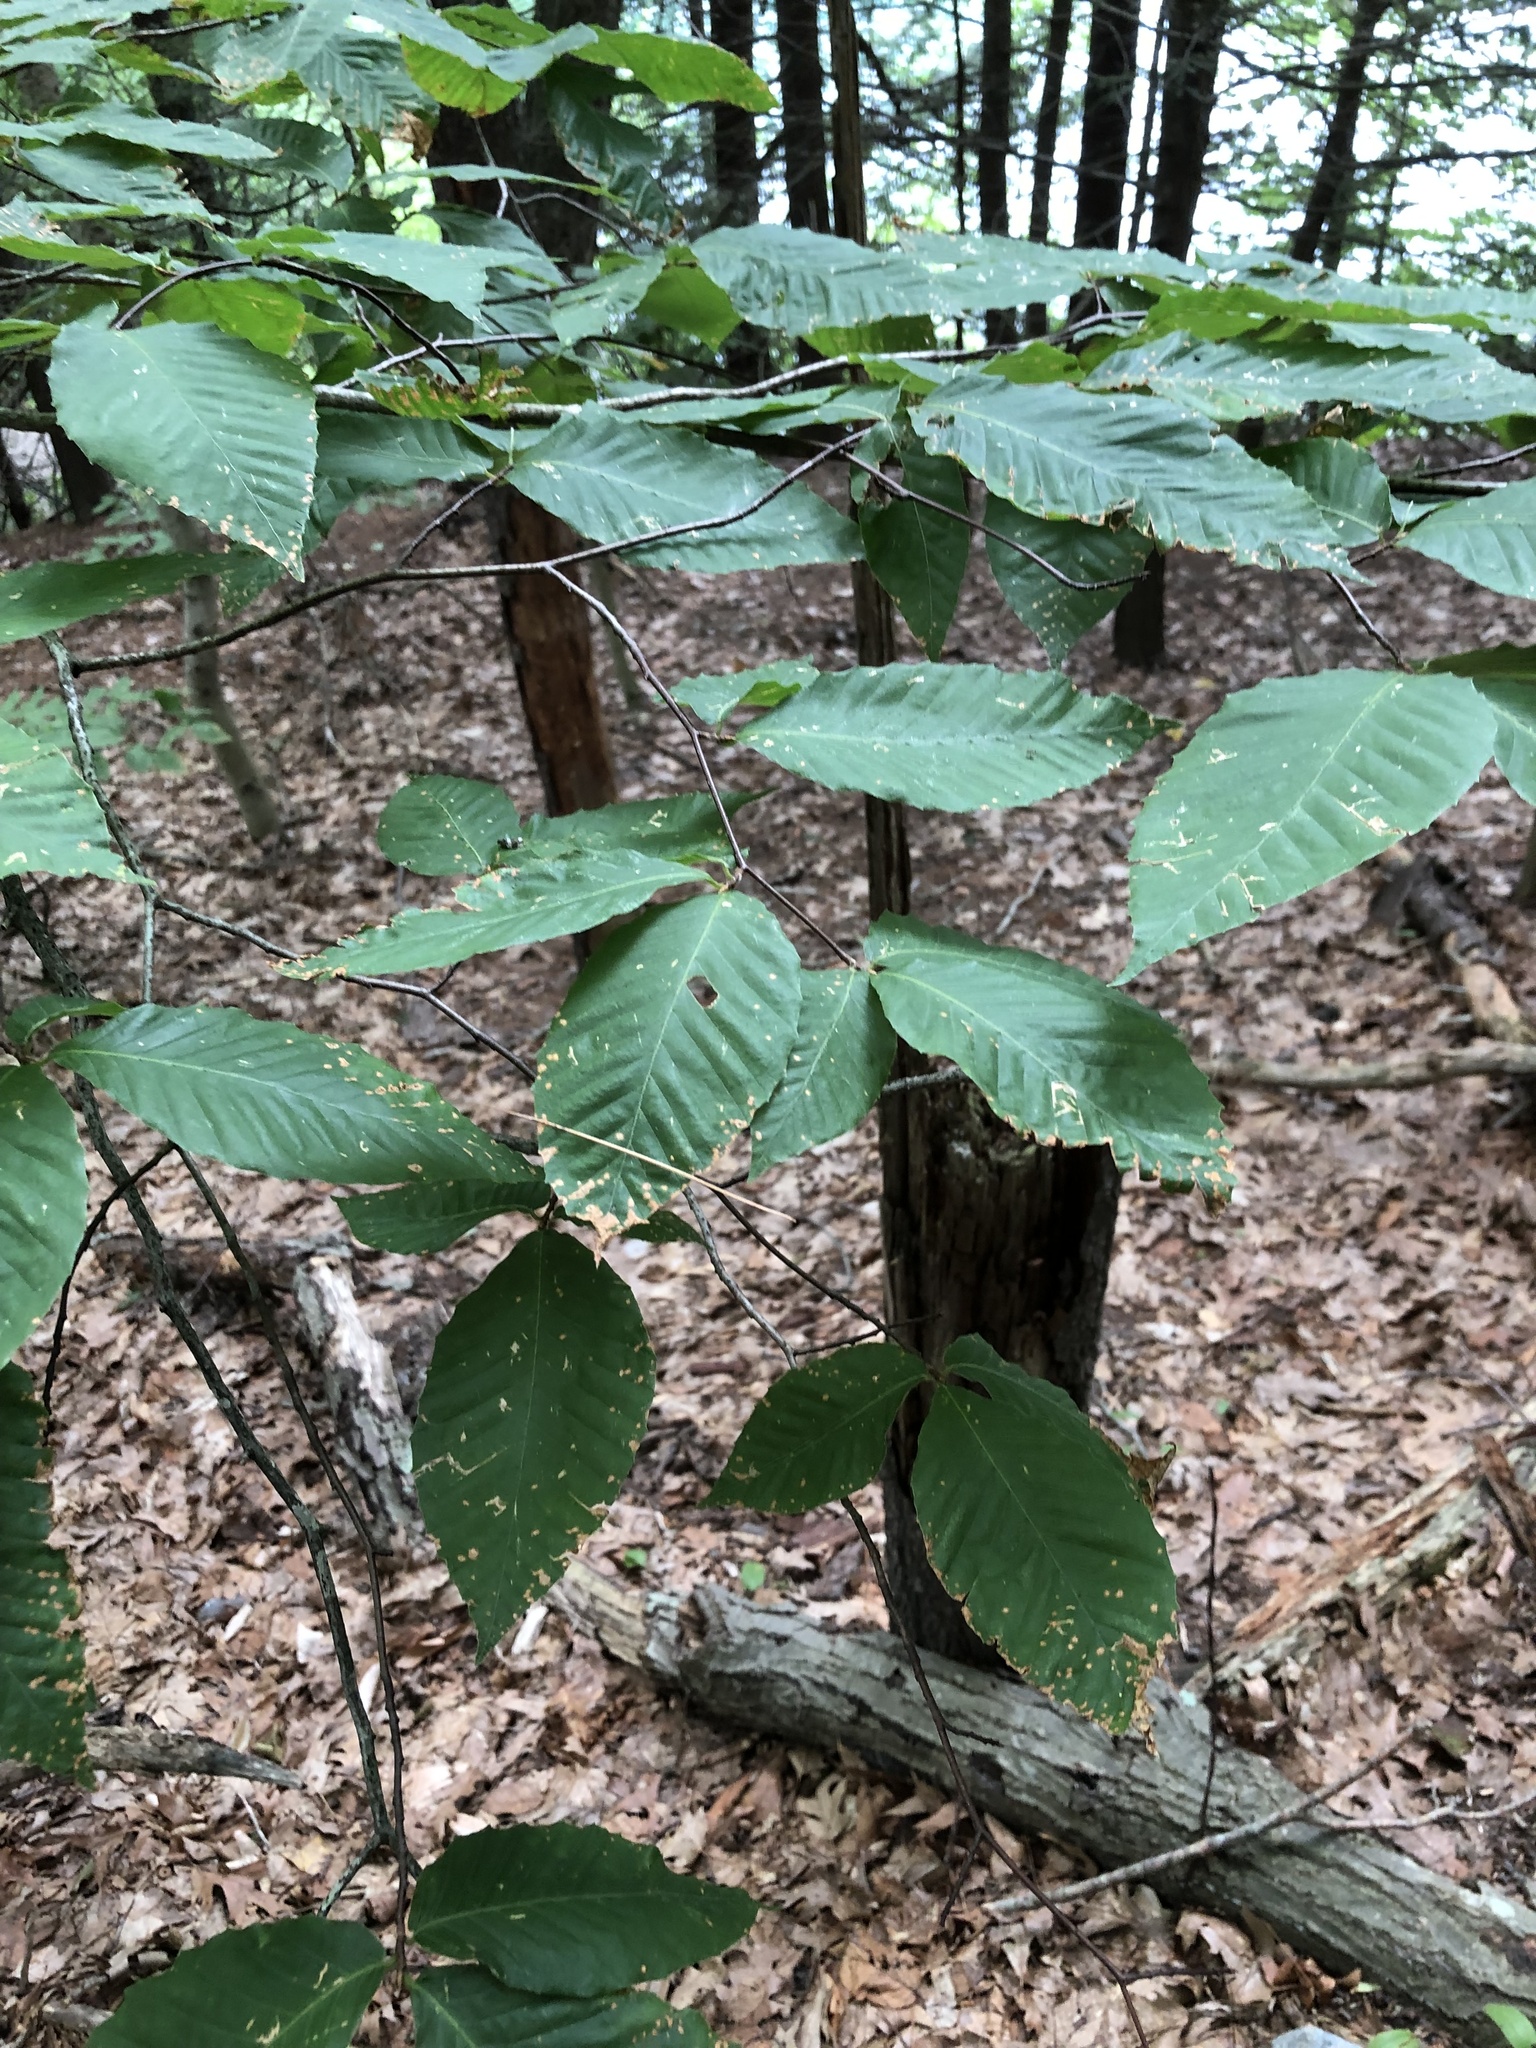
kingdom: Plantae
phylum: Tracheophyta
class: Magnoliopsida
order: Fagales
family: Fagaceae
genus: Fagus
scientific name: Fagus grandifolia
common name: American beech
